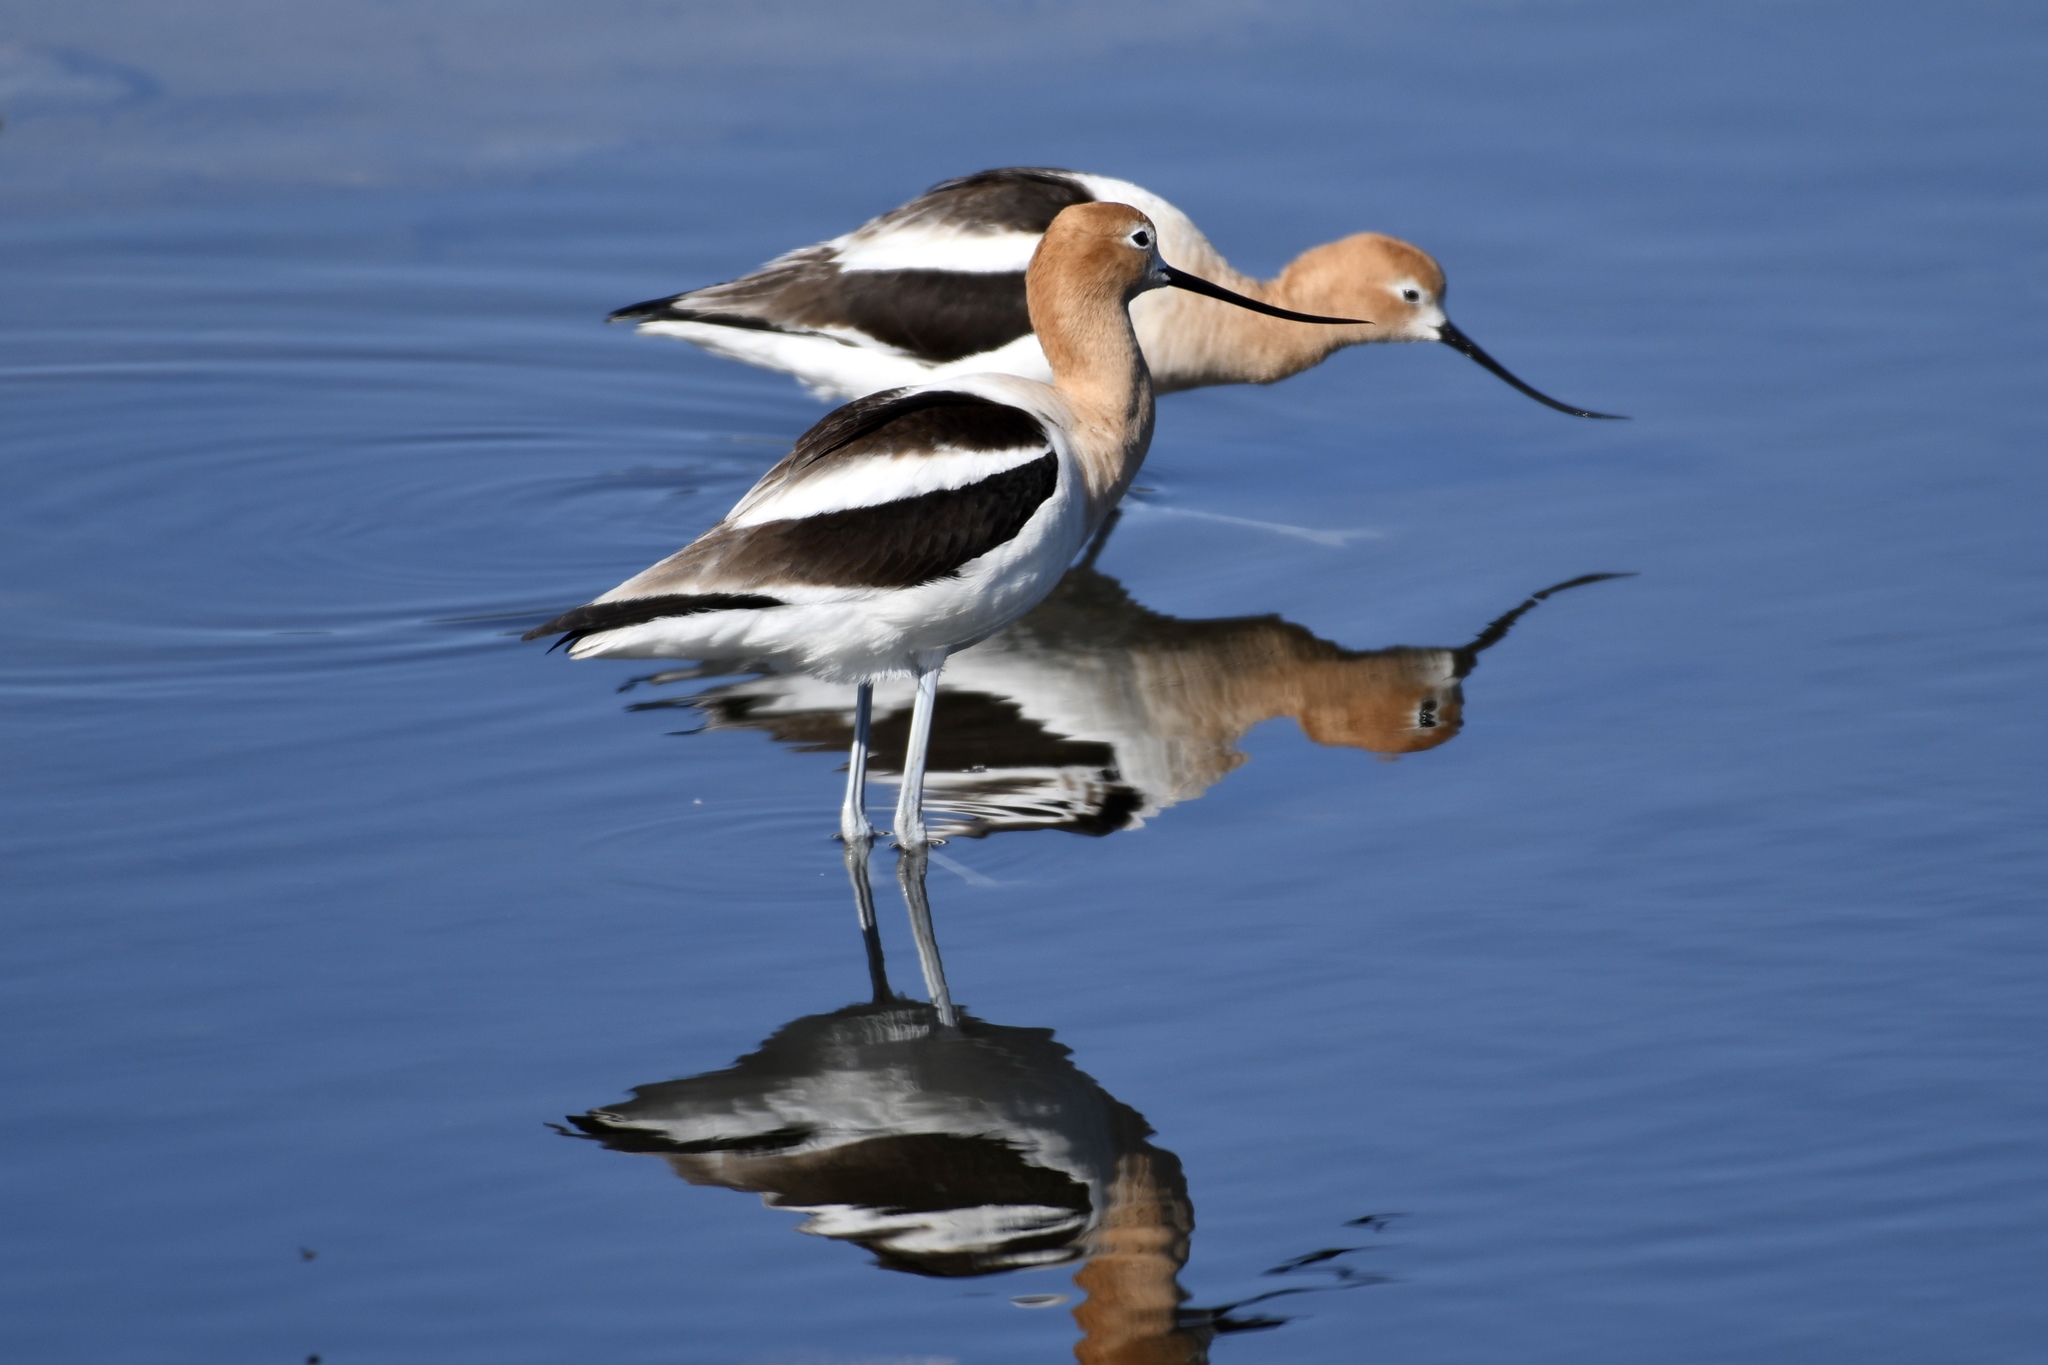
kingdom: Animalia
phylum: Chordata
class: Aves
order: Charadriiformes
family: Recurvirostridae
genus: Recurvirostra
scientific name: Recurvirostra americana
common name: American avocet
